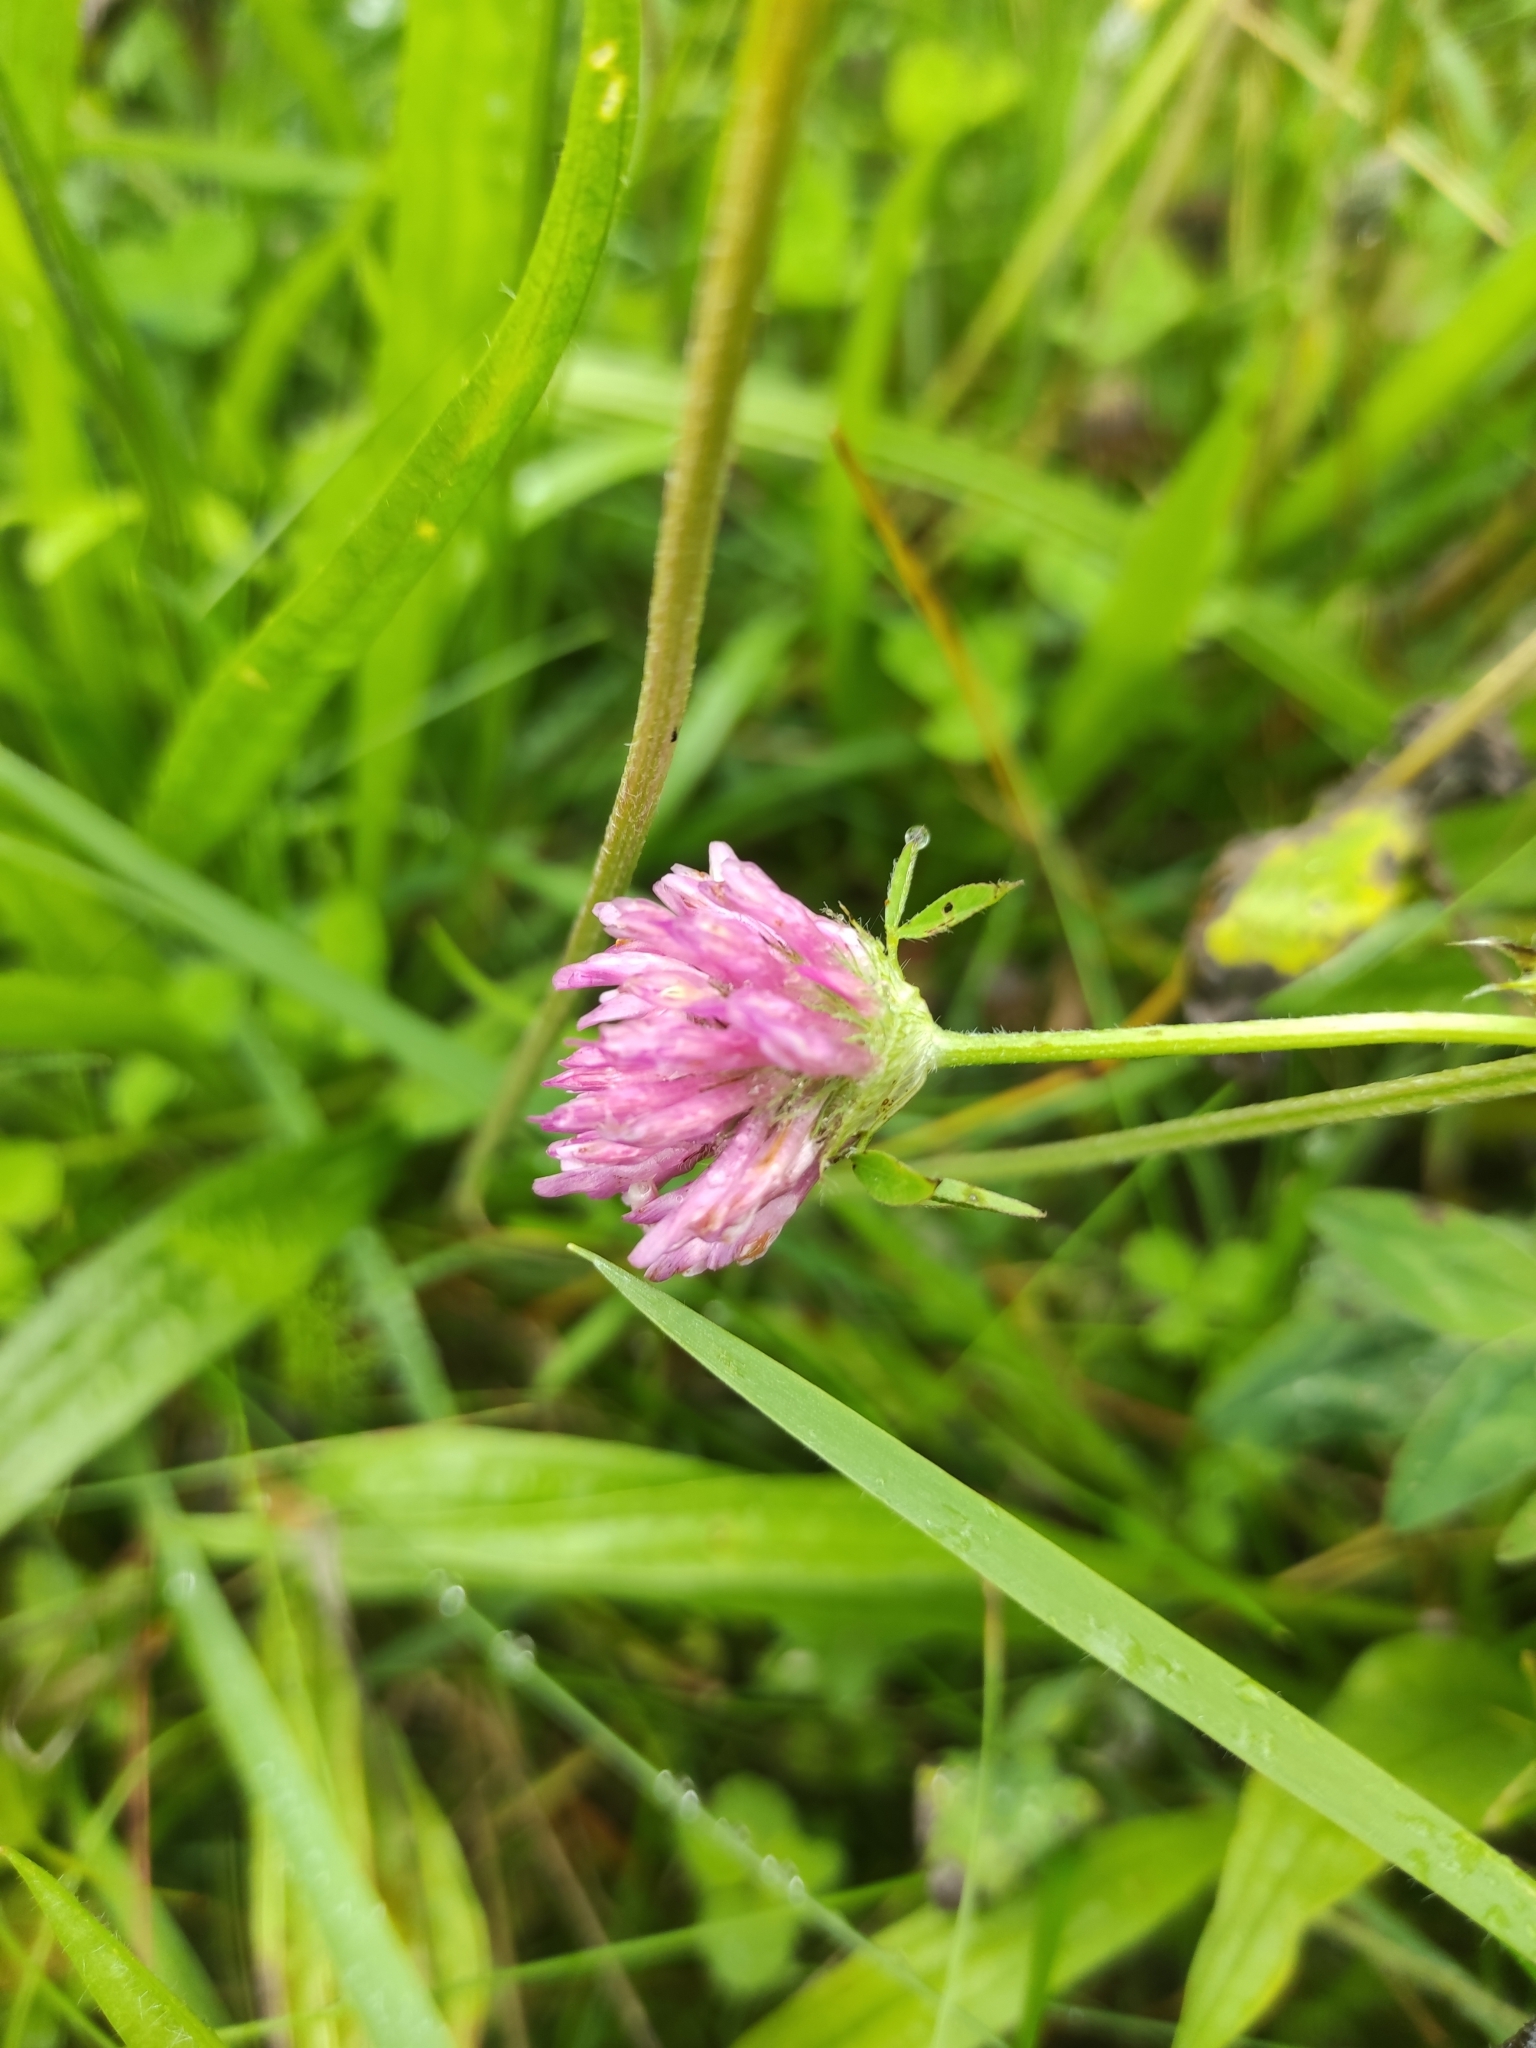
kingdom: Plantae
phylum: Tracheophyta
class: Magnoliopsida
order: Fabales
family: Fabaceae
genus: Trifolium
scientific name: Trifolium pratense
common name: Red clover
